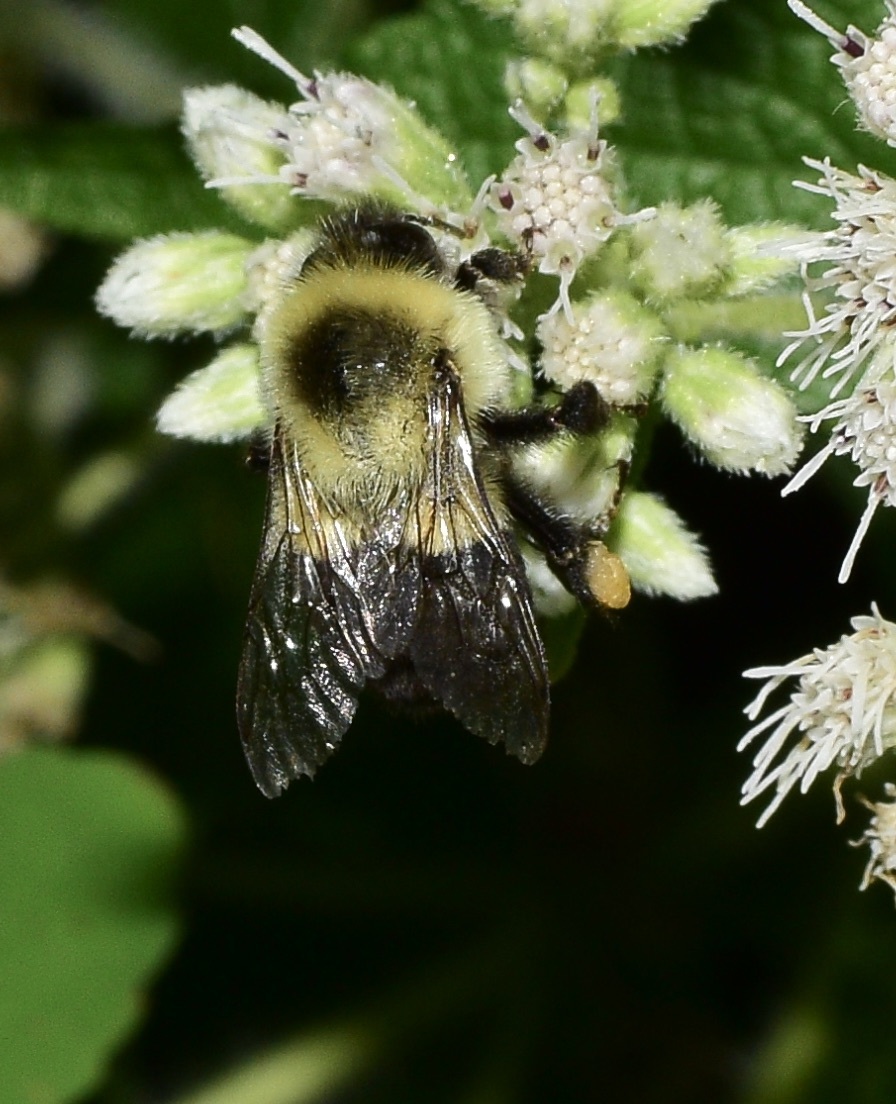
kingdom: Animalia
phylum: Arthropoda
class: Insecta
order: Hymenoptera
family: Apidae
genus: Bombus
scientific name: Bombus impatiens
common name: Common eastern bumble bee
